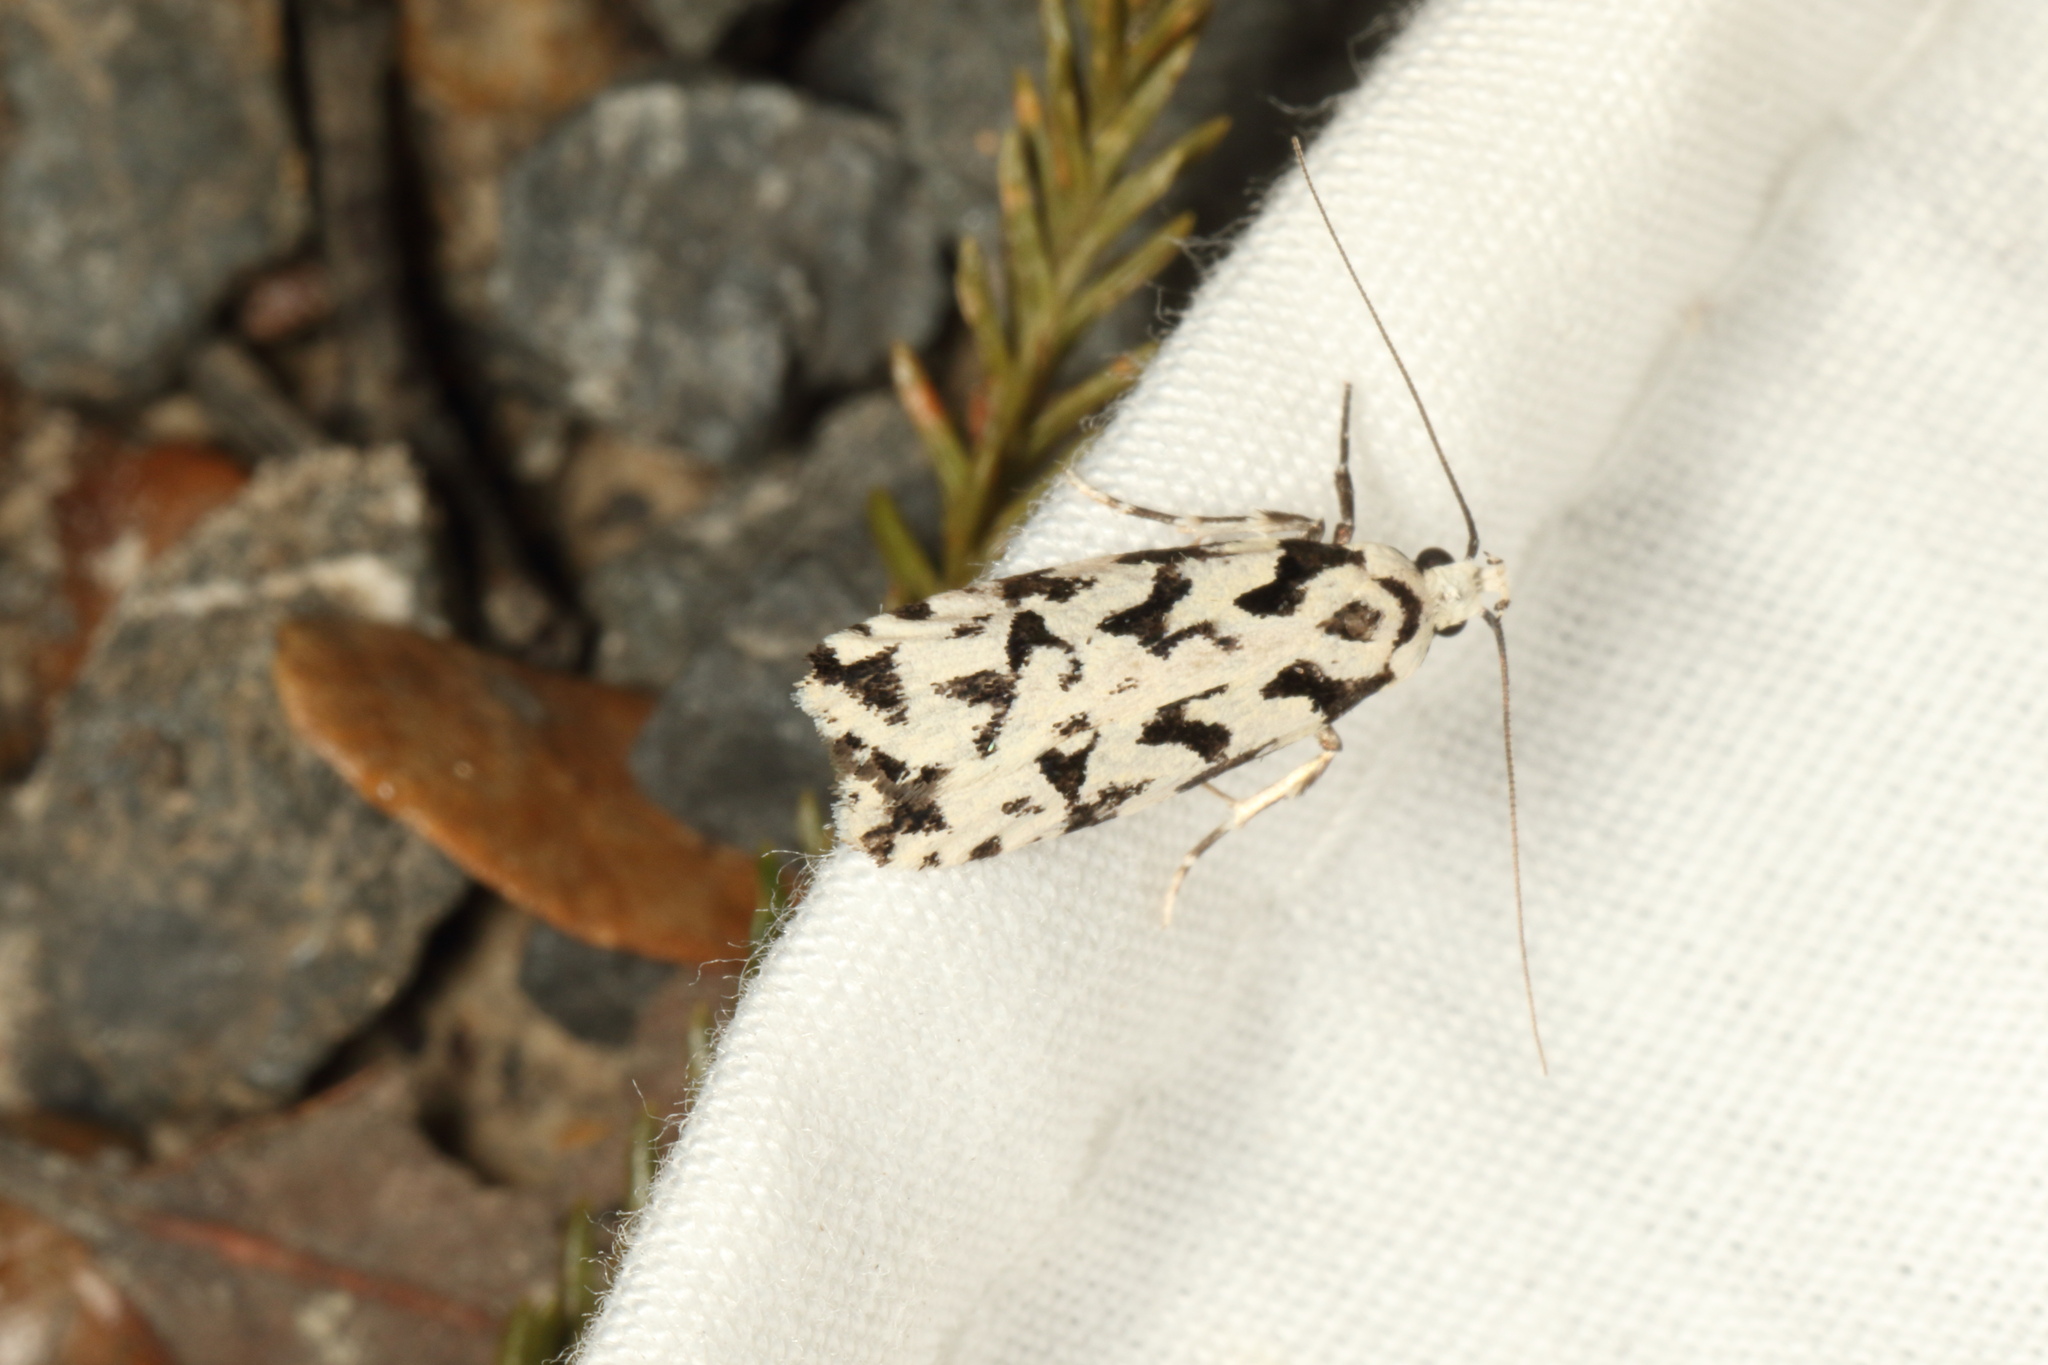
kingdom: Animalia
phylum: Arthropoda
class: Insecta
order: Lepidoptera
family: Oecophoridae
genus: Izatha
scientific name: Izatha
